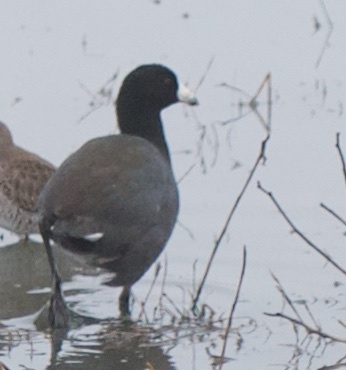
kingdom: Animalia
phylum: Chordata
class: Aves
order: Gruiformes
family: Rallidae
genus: Fulica
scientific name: Fulica americana
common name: American coot
